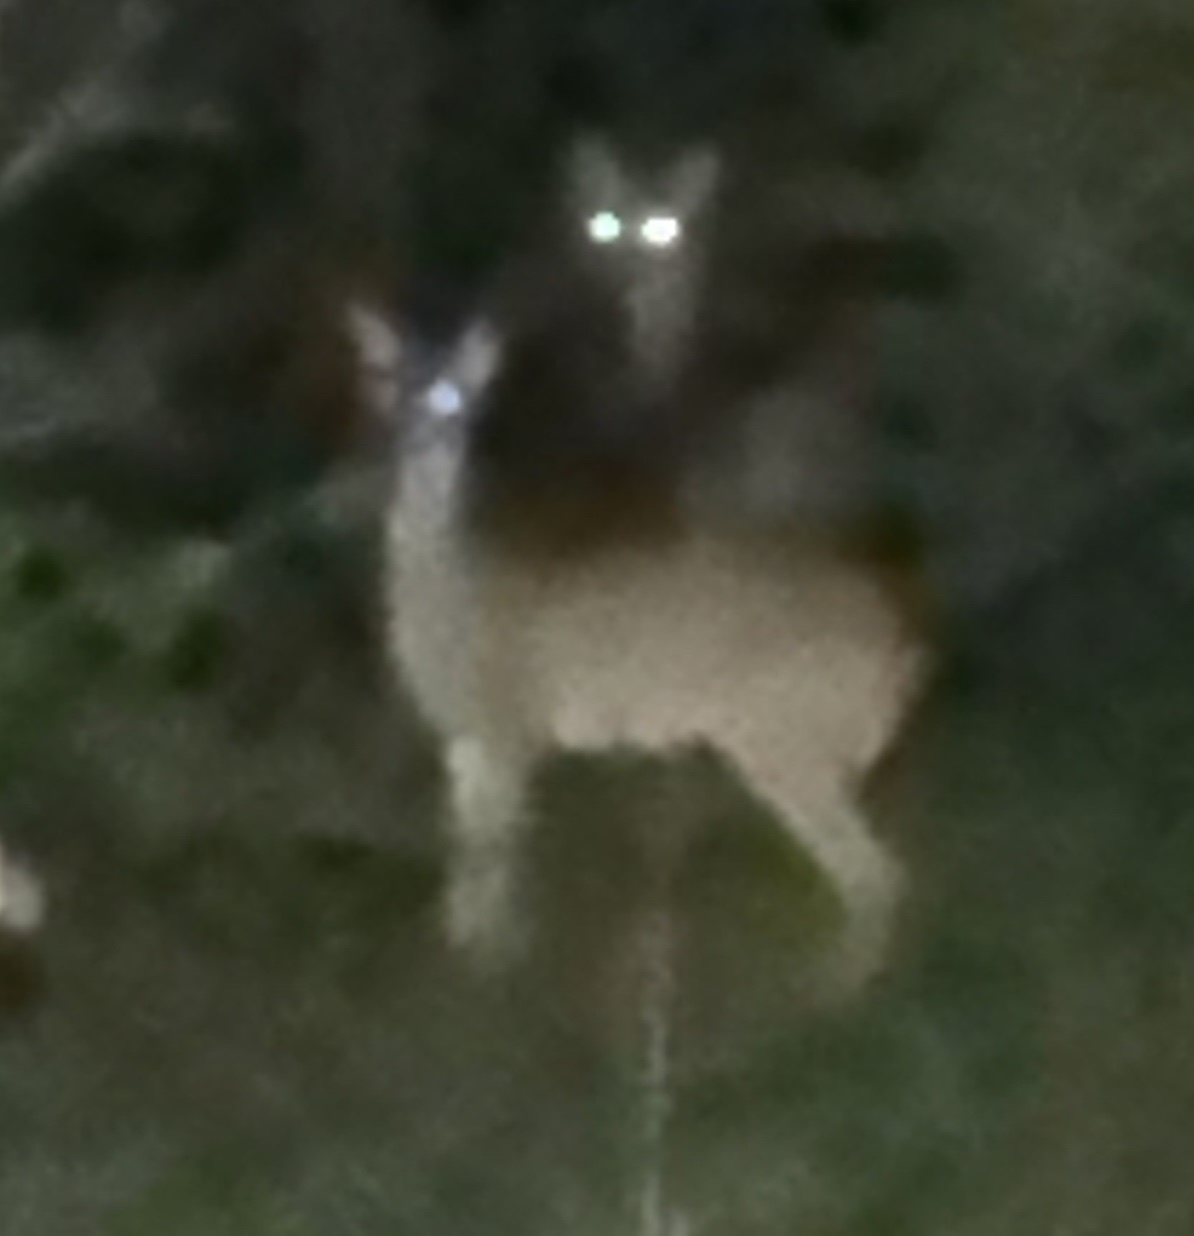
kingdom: Animalia
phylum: Chordata
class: Mammalia
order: Artiodactyla
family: Cervidae
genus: Odocoileus
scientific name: Odocoileus virginianus
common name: White-tailed deer
